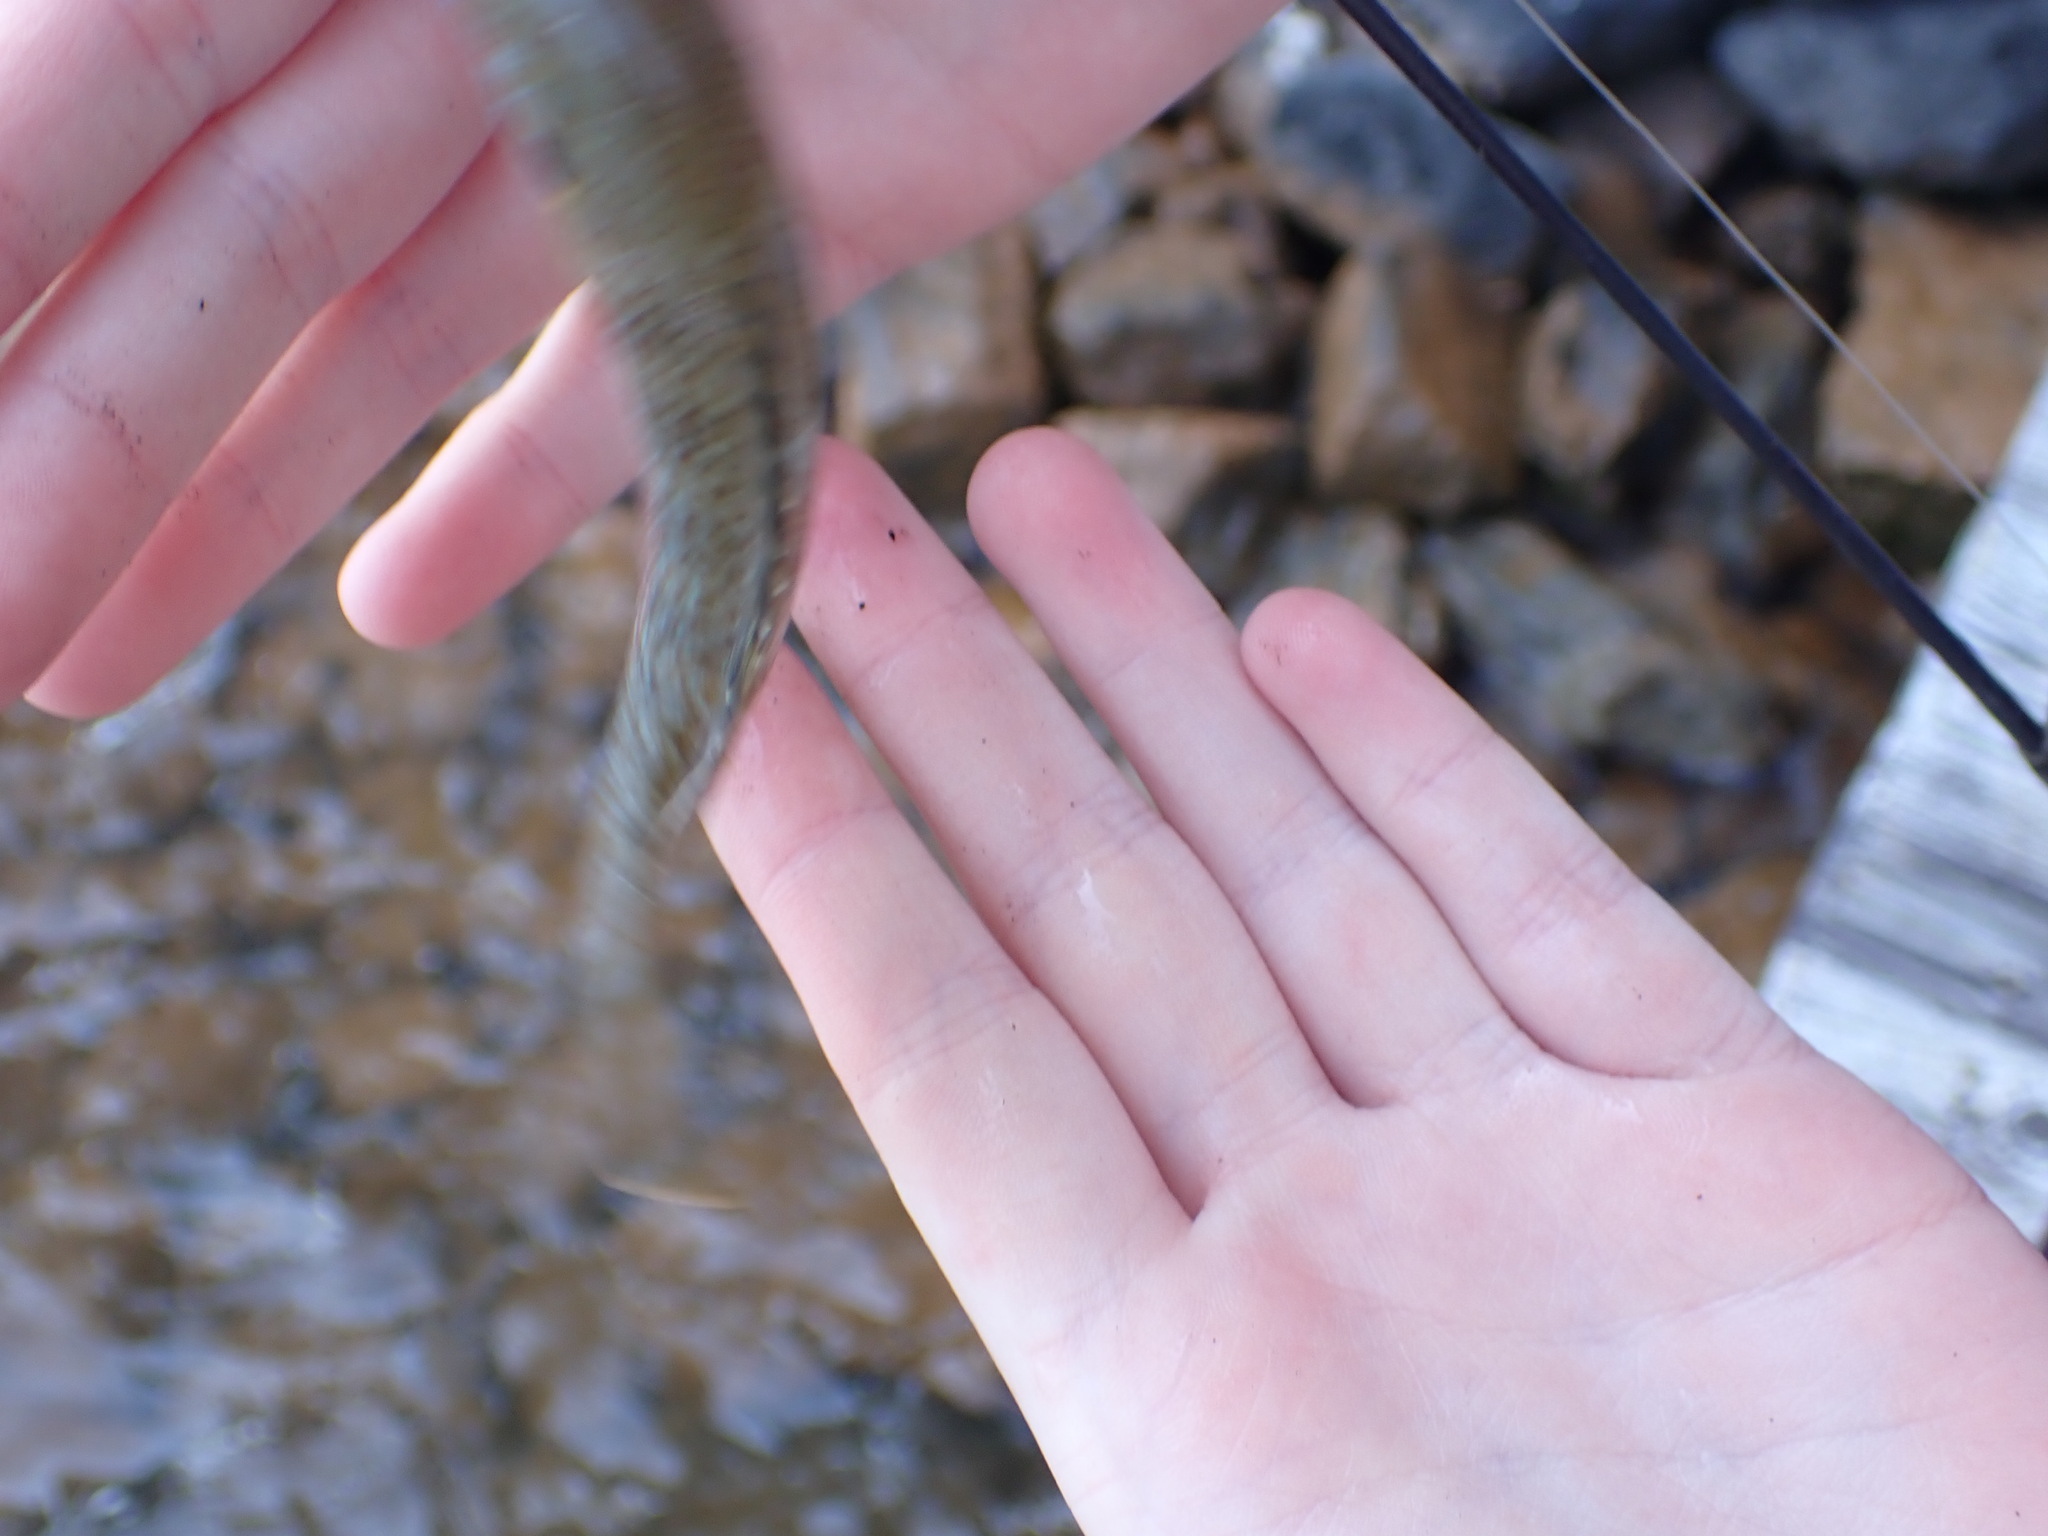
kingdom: Animalia
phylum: Chordata
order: Perciformes
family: Centrarchidae
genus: Lepomis
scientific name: Lepomis cyanellus
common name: Green sunfish
